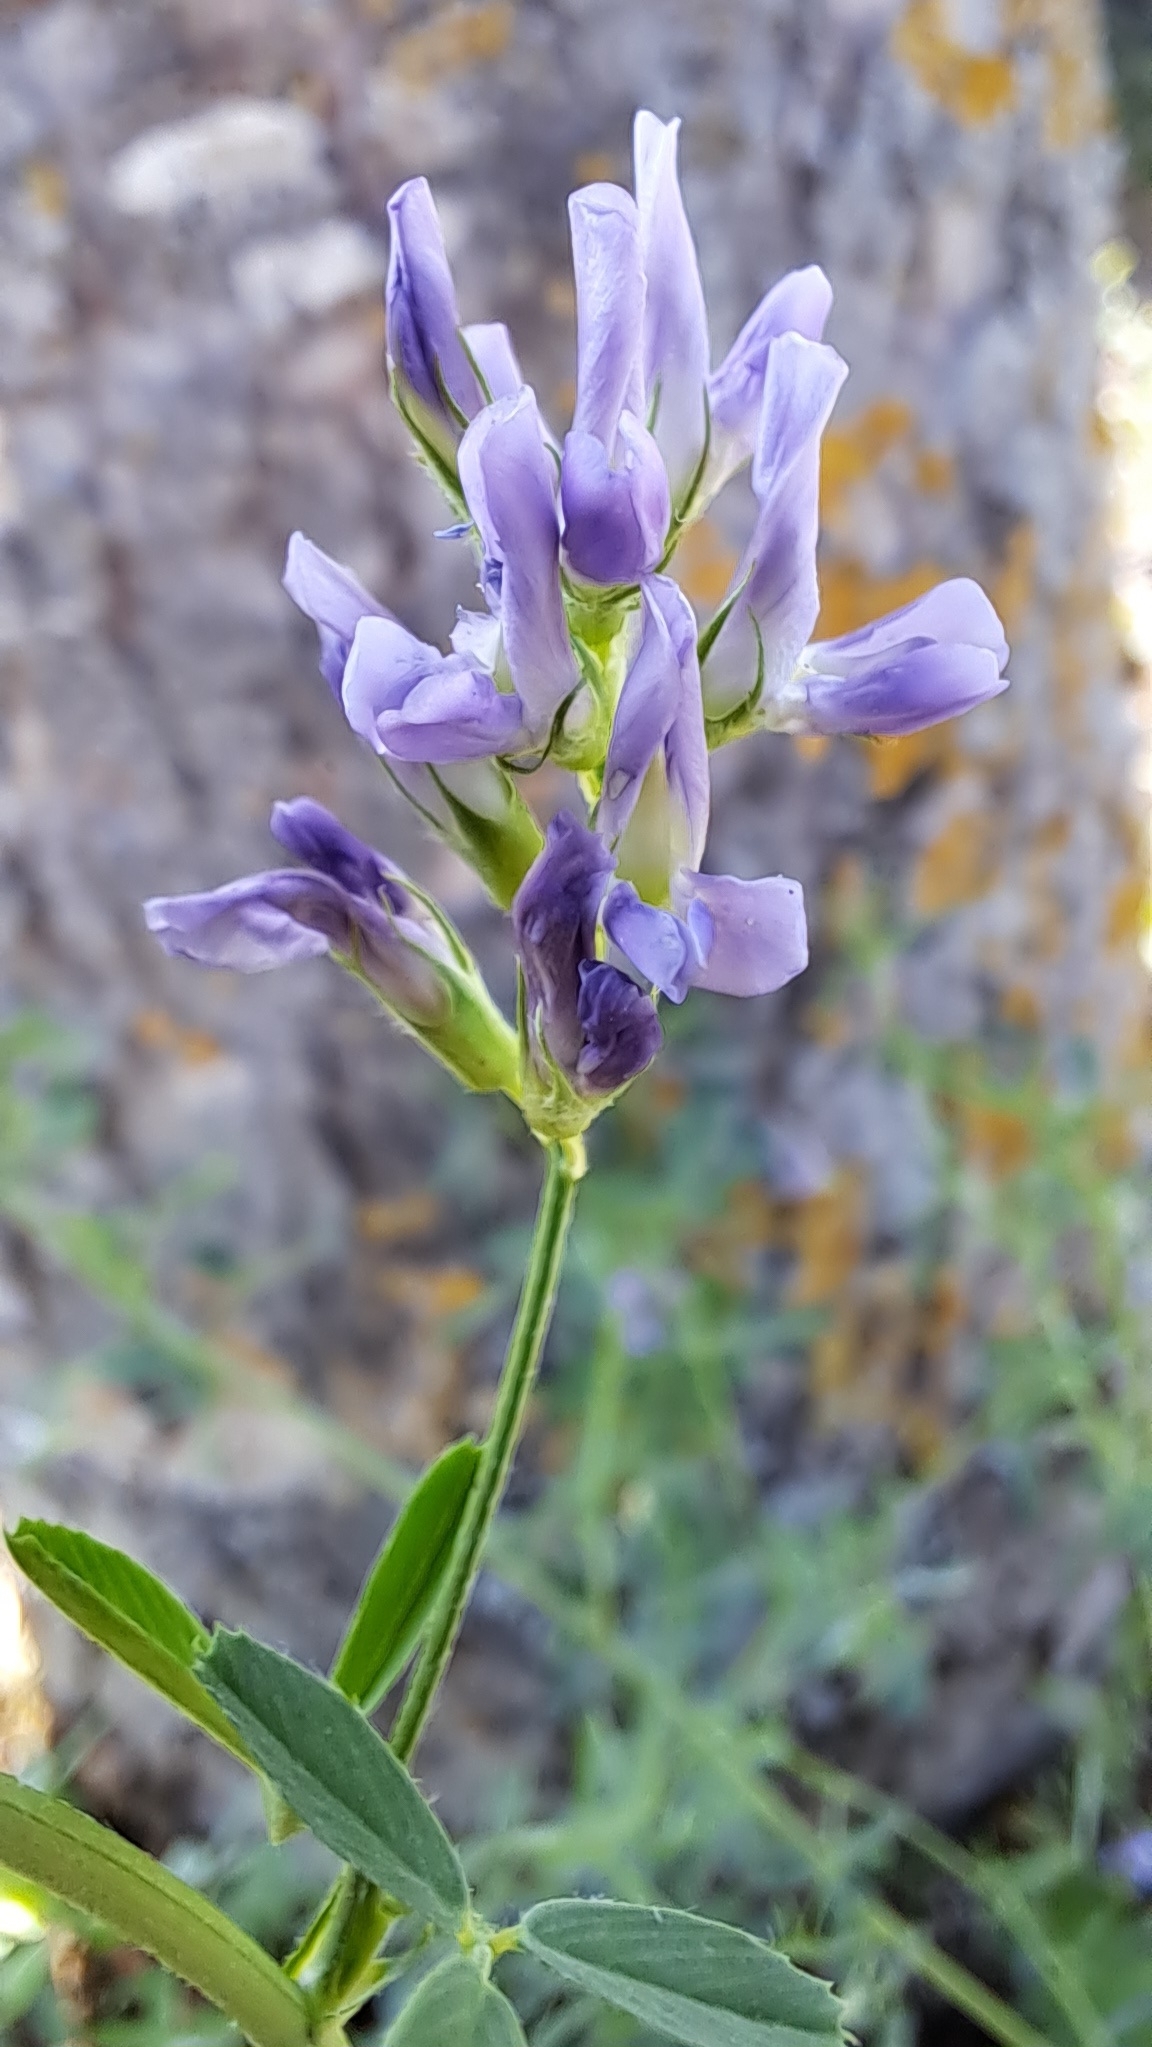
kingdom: Plantae
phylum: Tracheophyta
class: Magnoliopsida
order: Fabales
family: Fabaceae
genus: Medicago
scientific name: Medicago sativa
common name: Alfalfa
